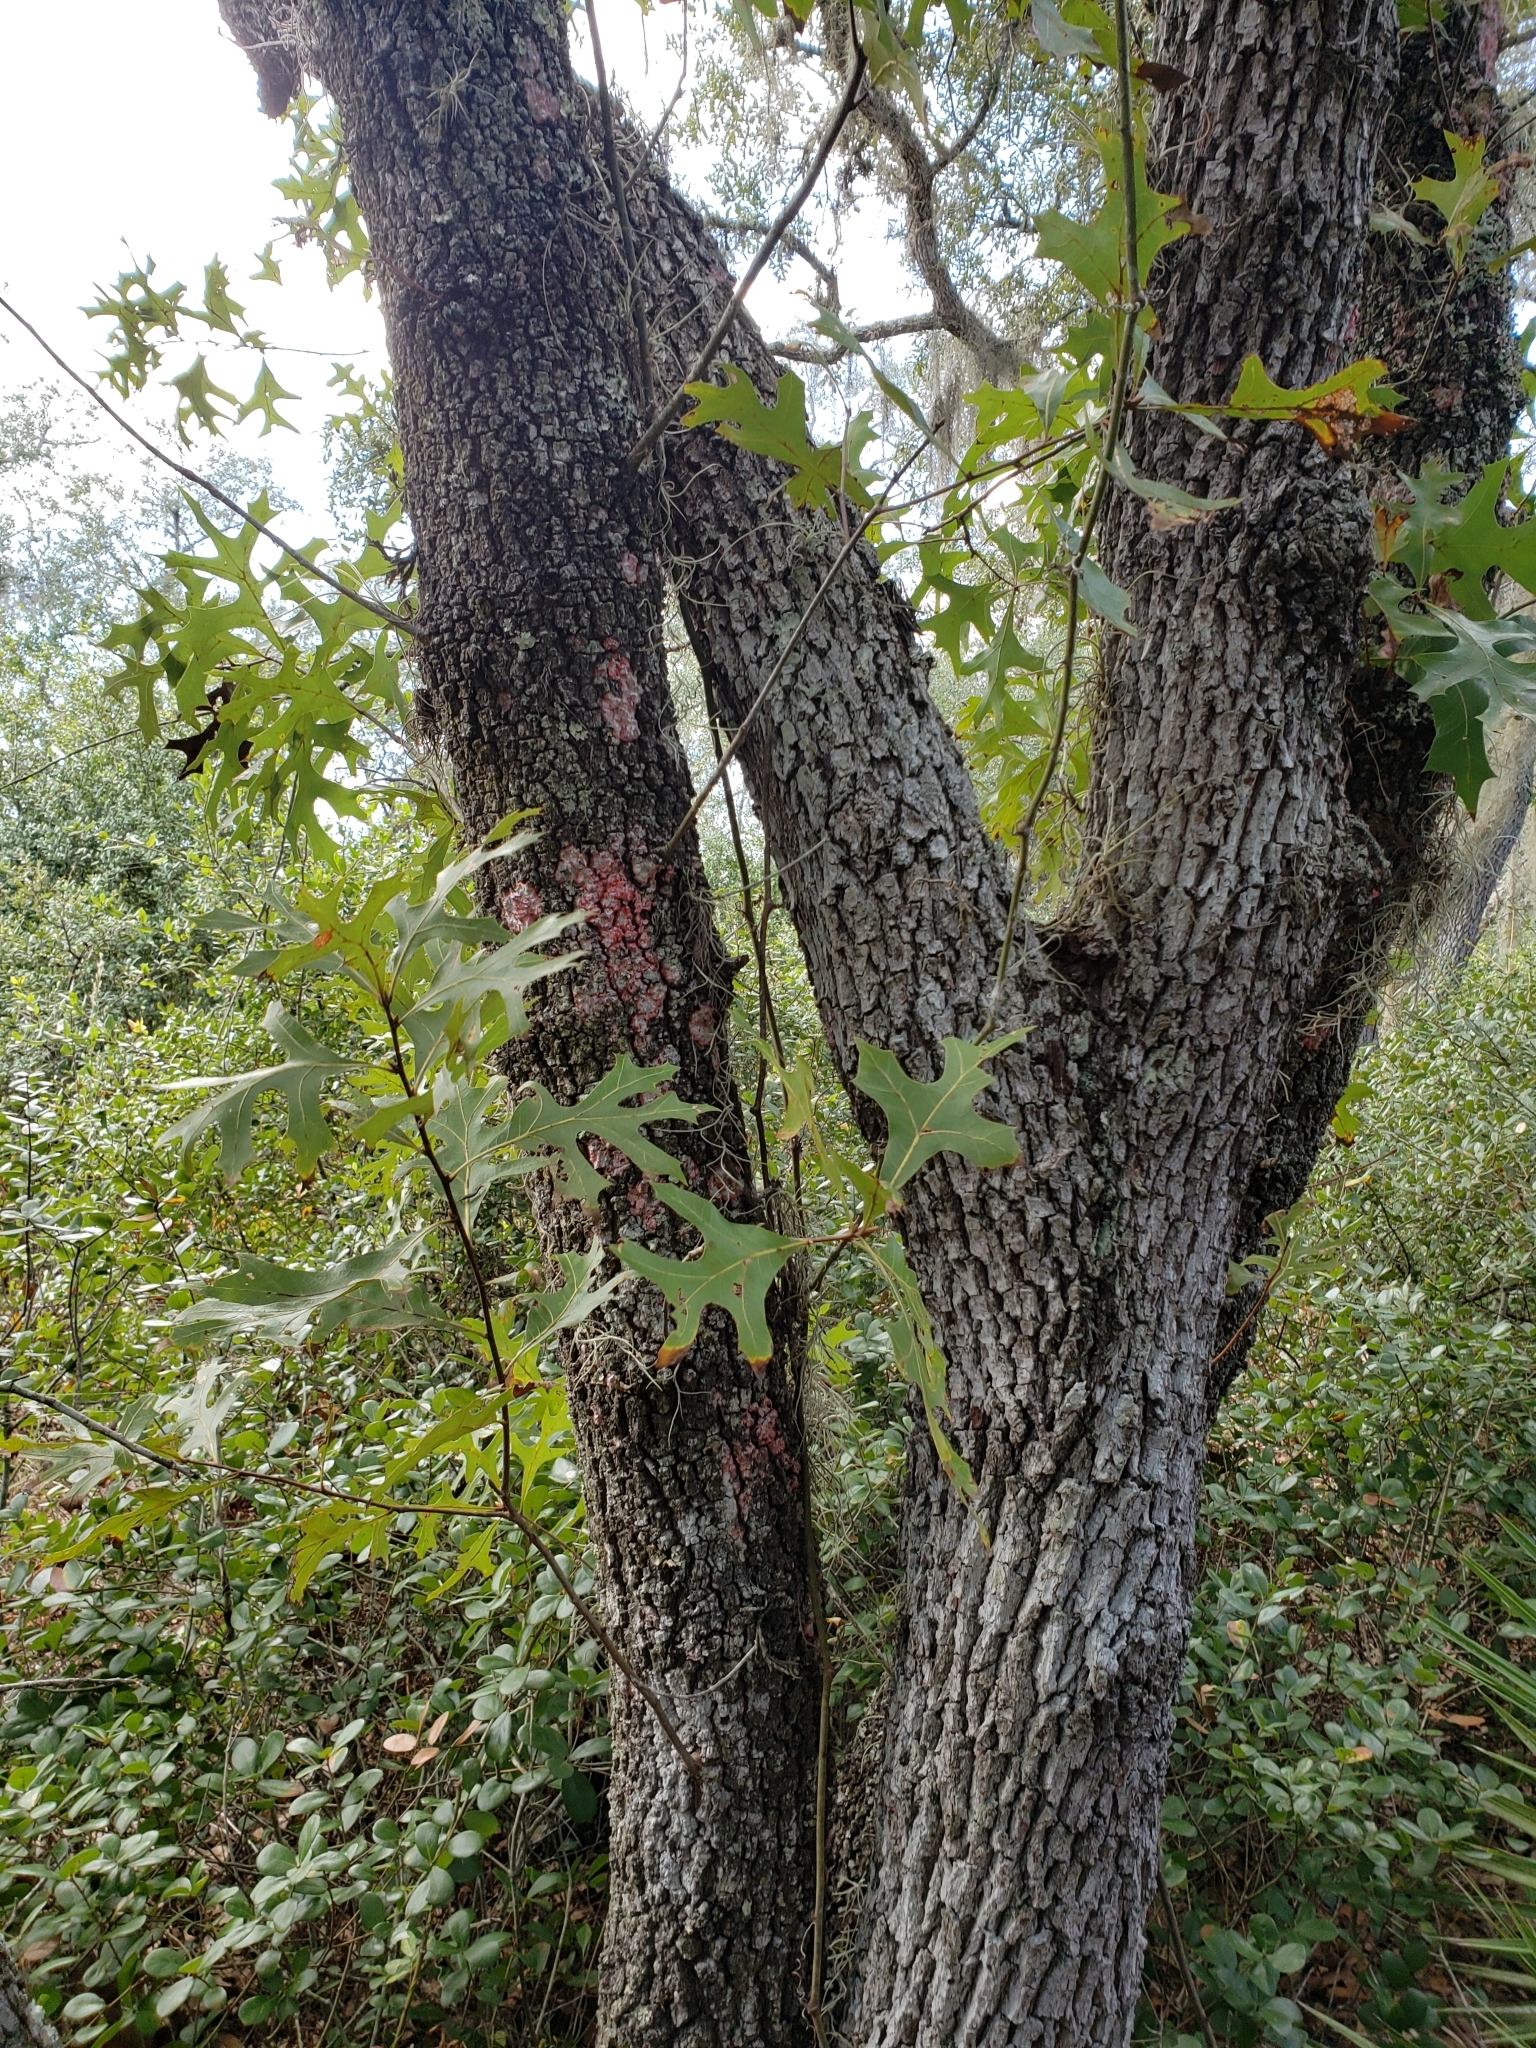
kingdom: Plantae
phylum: Tracheophyta
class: Magnoliopsida
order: Fagales
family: Fagaceae
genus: Quercus
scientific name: Quercus laevis
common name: Turkey oak
